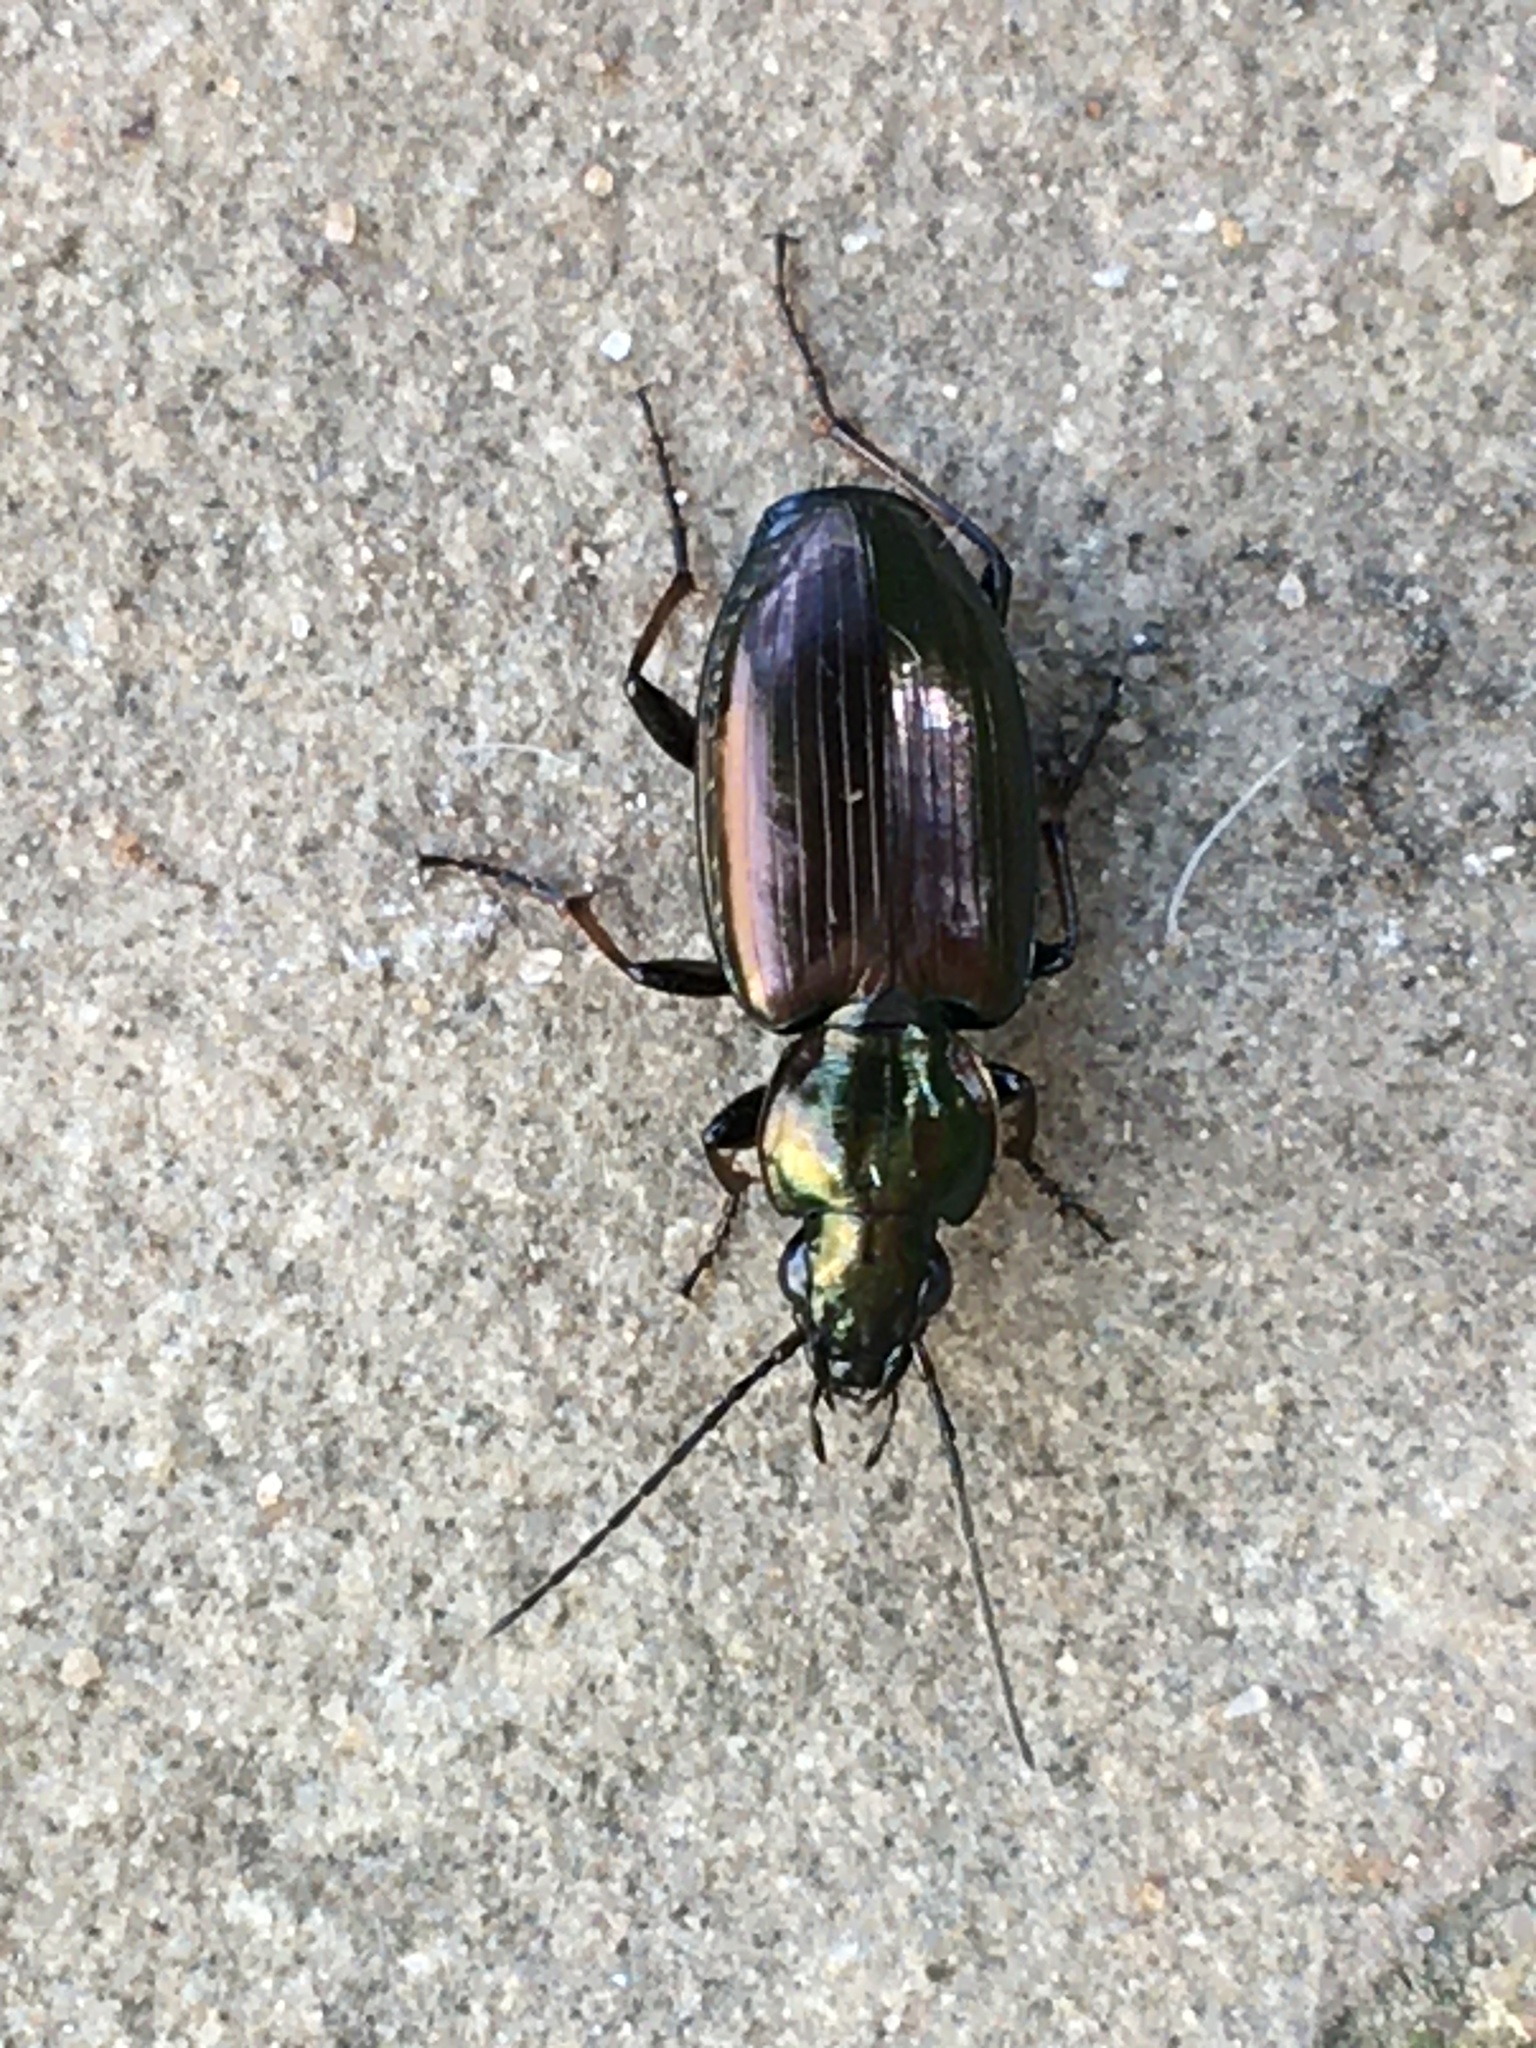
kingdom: Animalia
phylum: Arthropoda
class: Insecta
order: Coleoptera
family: Carabidae
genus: Agonum
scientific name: Agonum muelleri
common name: Müller's harp ground beetle
